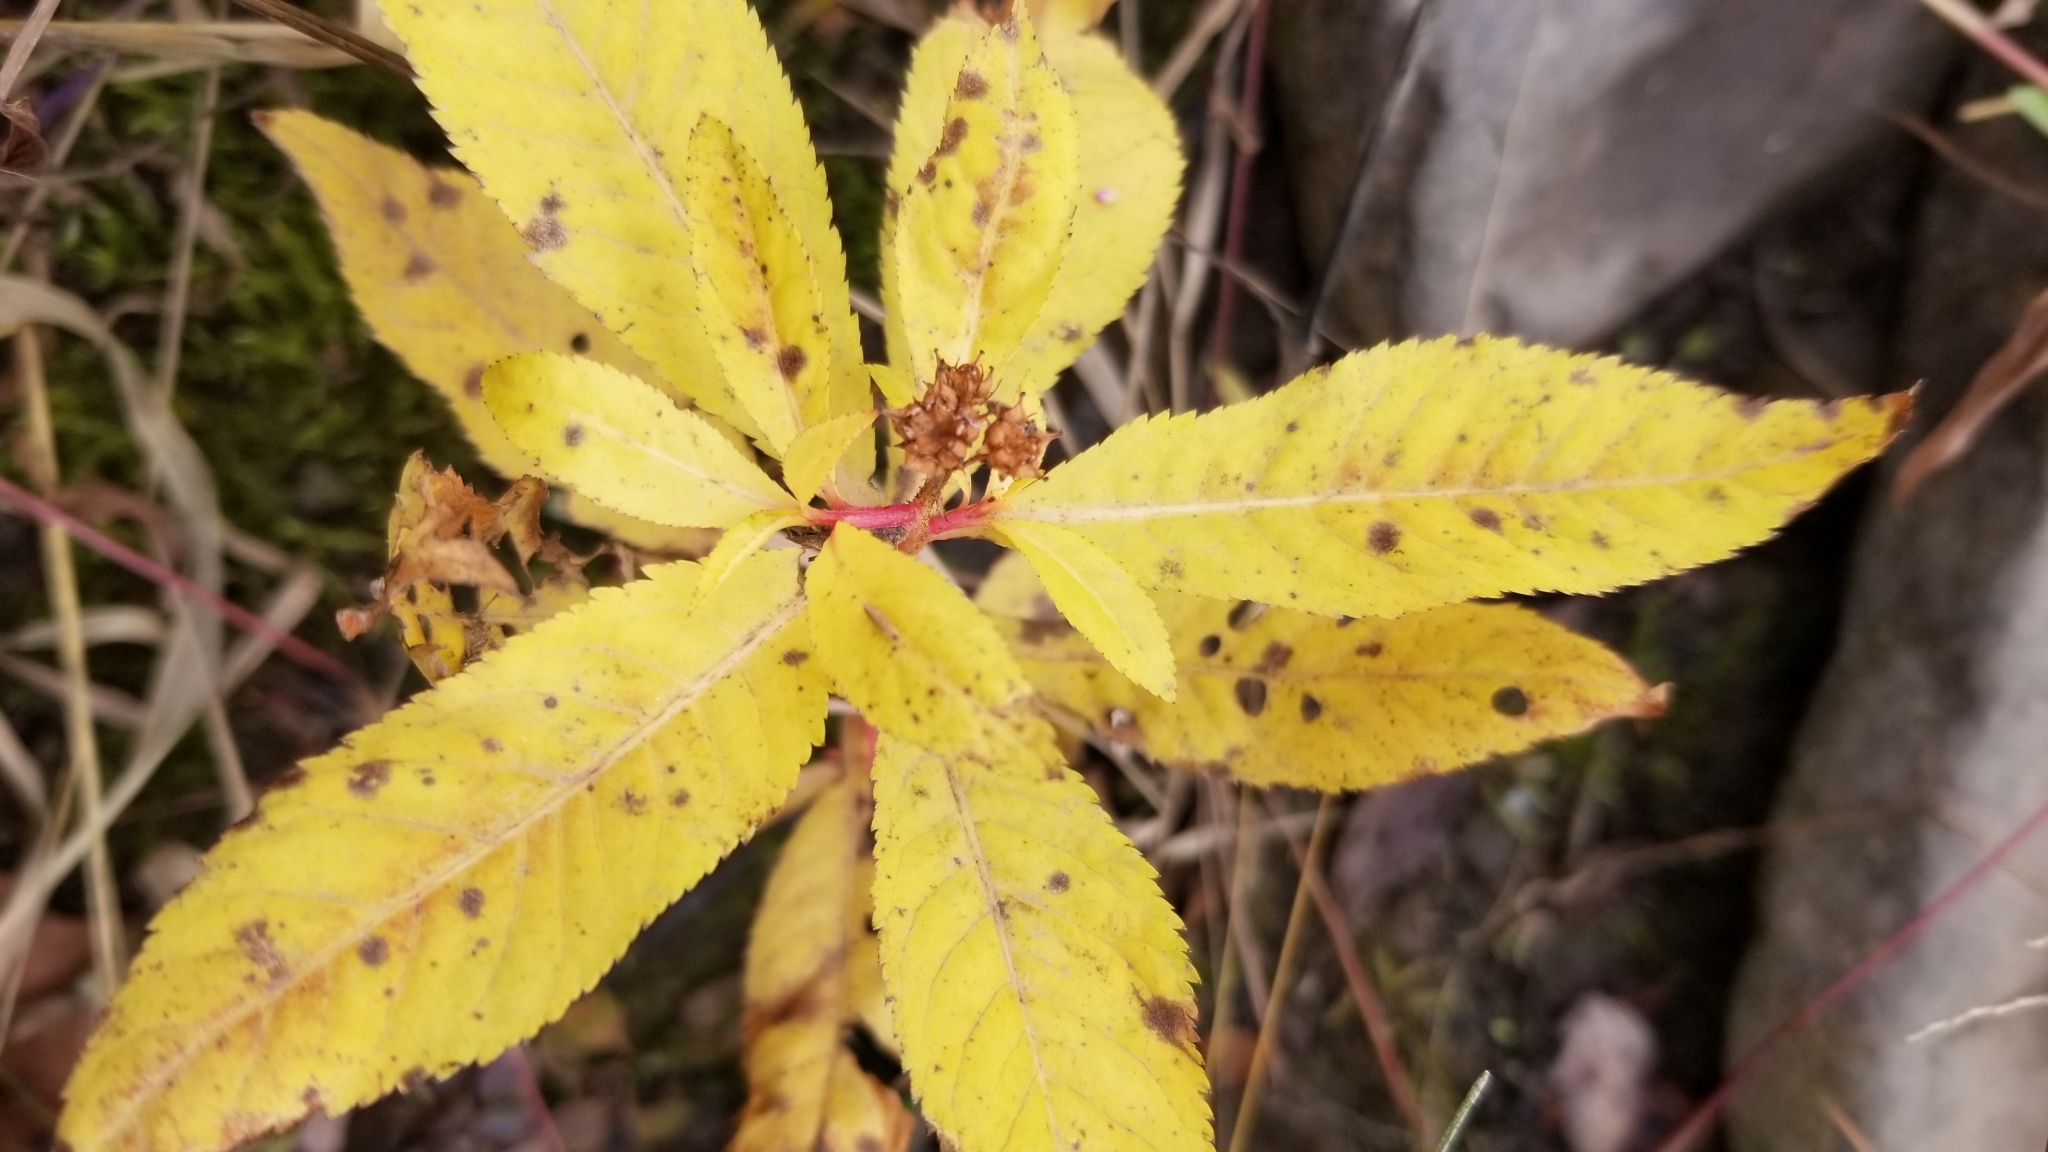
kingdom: Plantae
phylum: Tracheophyta
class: Magnoliopsida
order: Saxifragales
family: Penthoraceae
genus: Penthorum
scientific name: Penthorum sedoides
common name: Ditch stonecrop
